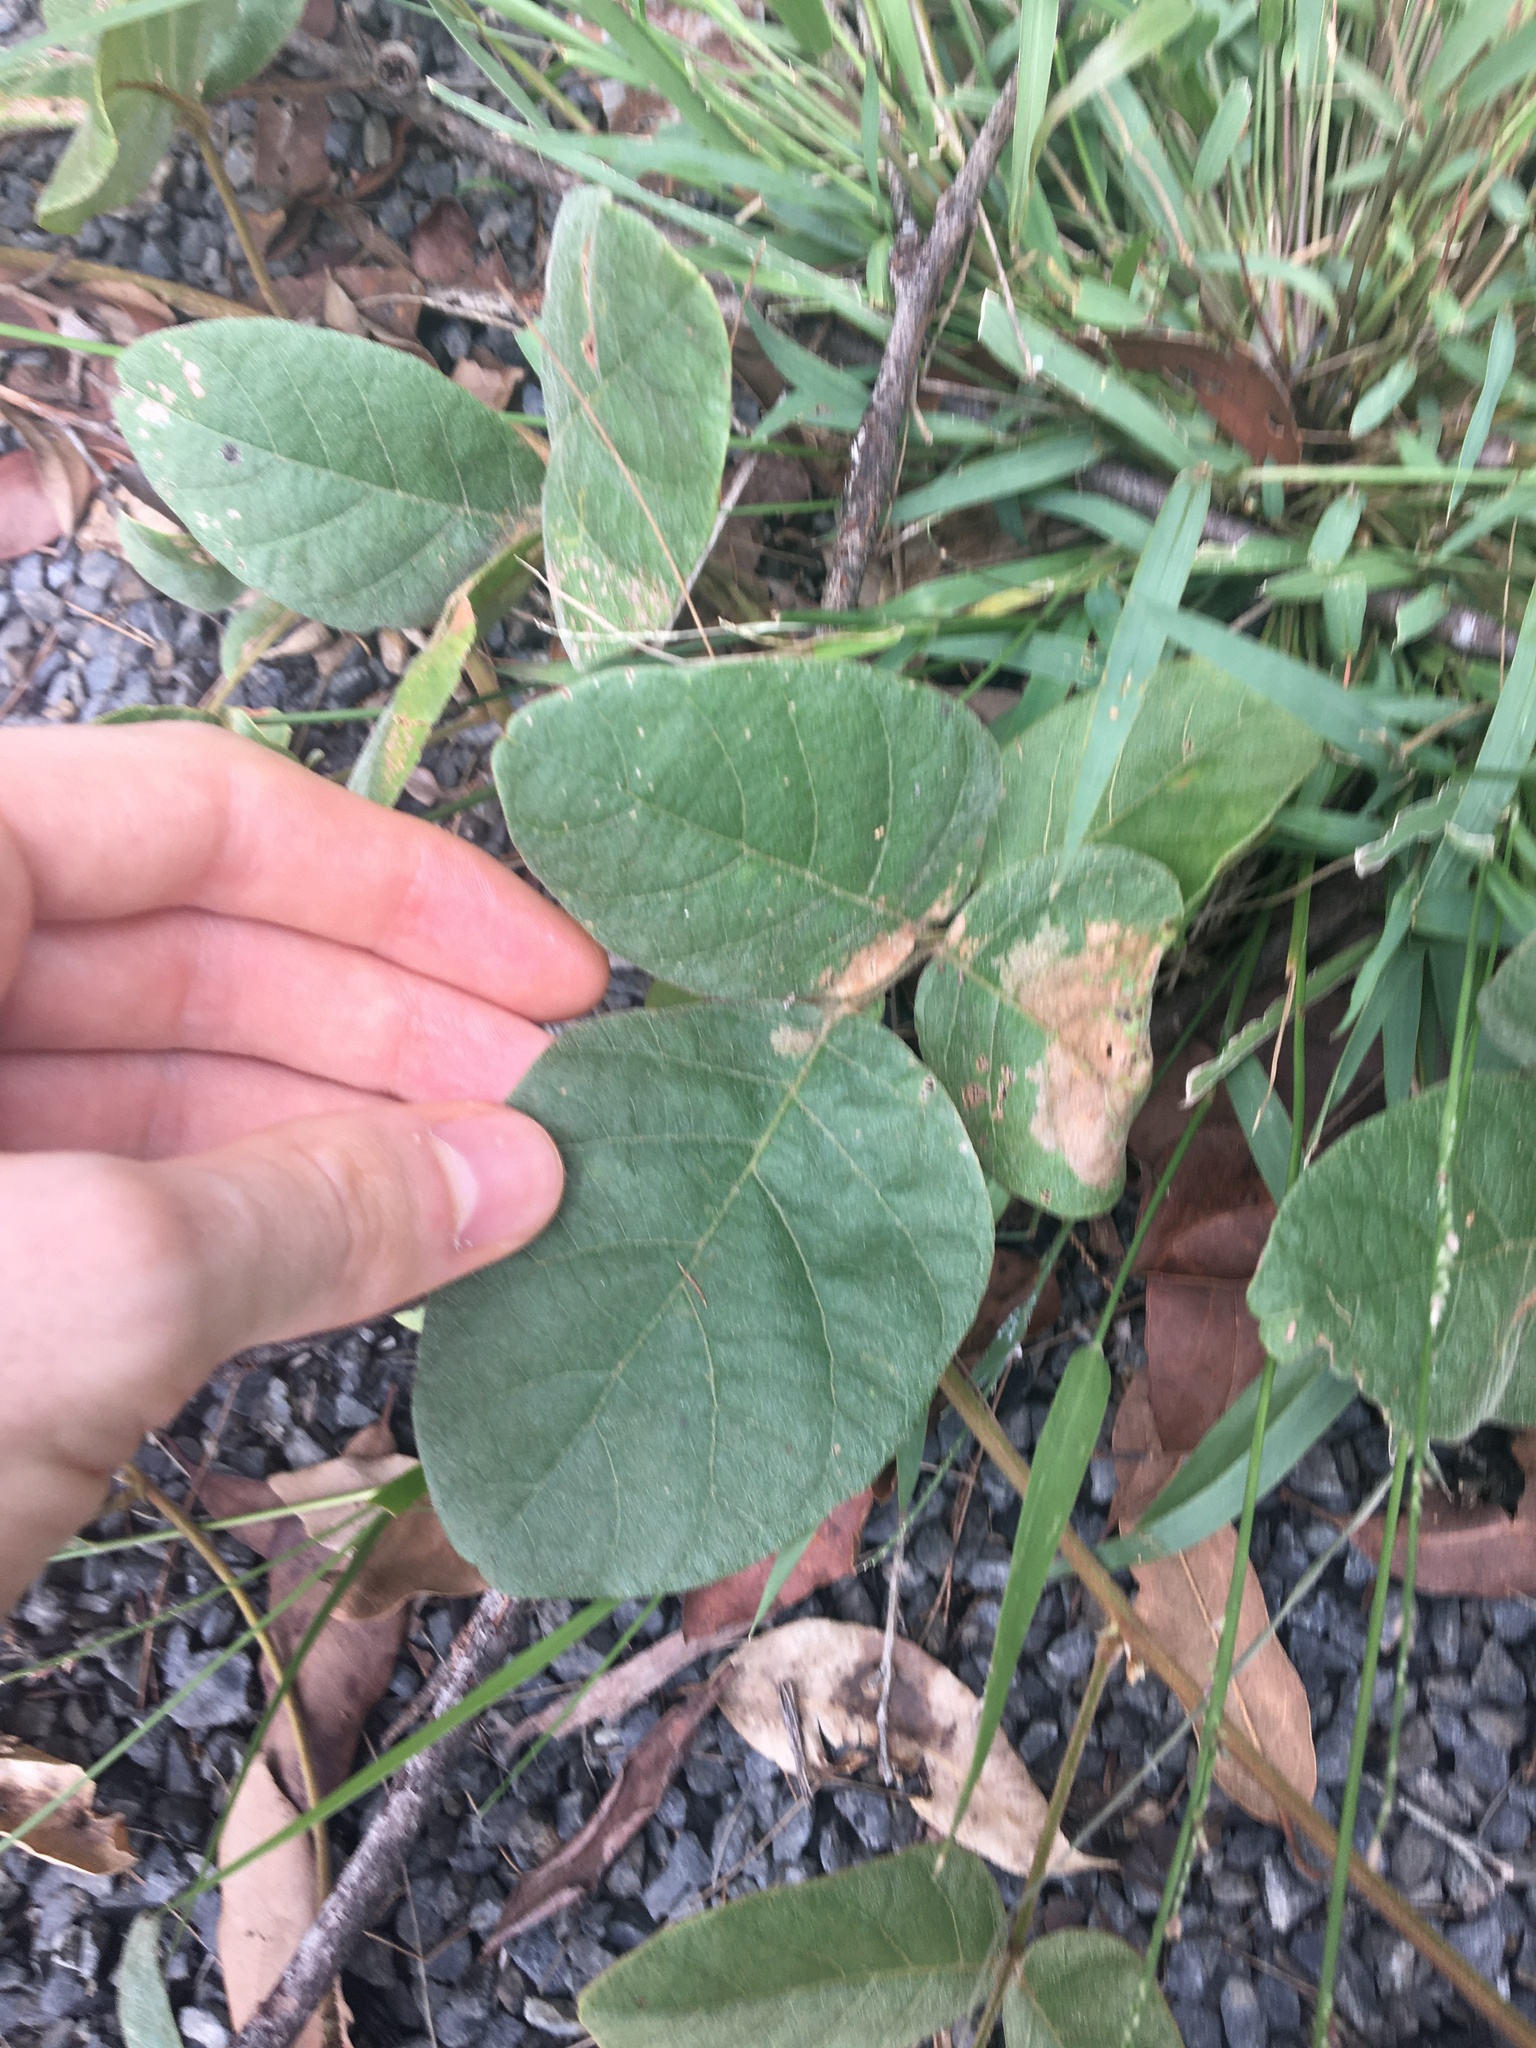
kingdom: Plantae
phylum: Tracheophyta
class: Magnoliopsida
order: Fabales
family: Fabaceae
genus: Kennedia
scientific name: Kennedia rubicunda
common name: Red kennedy-pea
